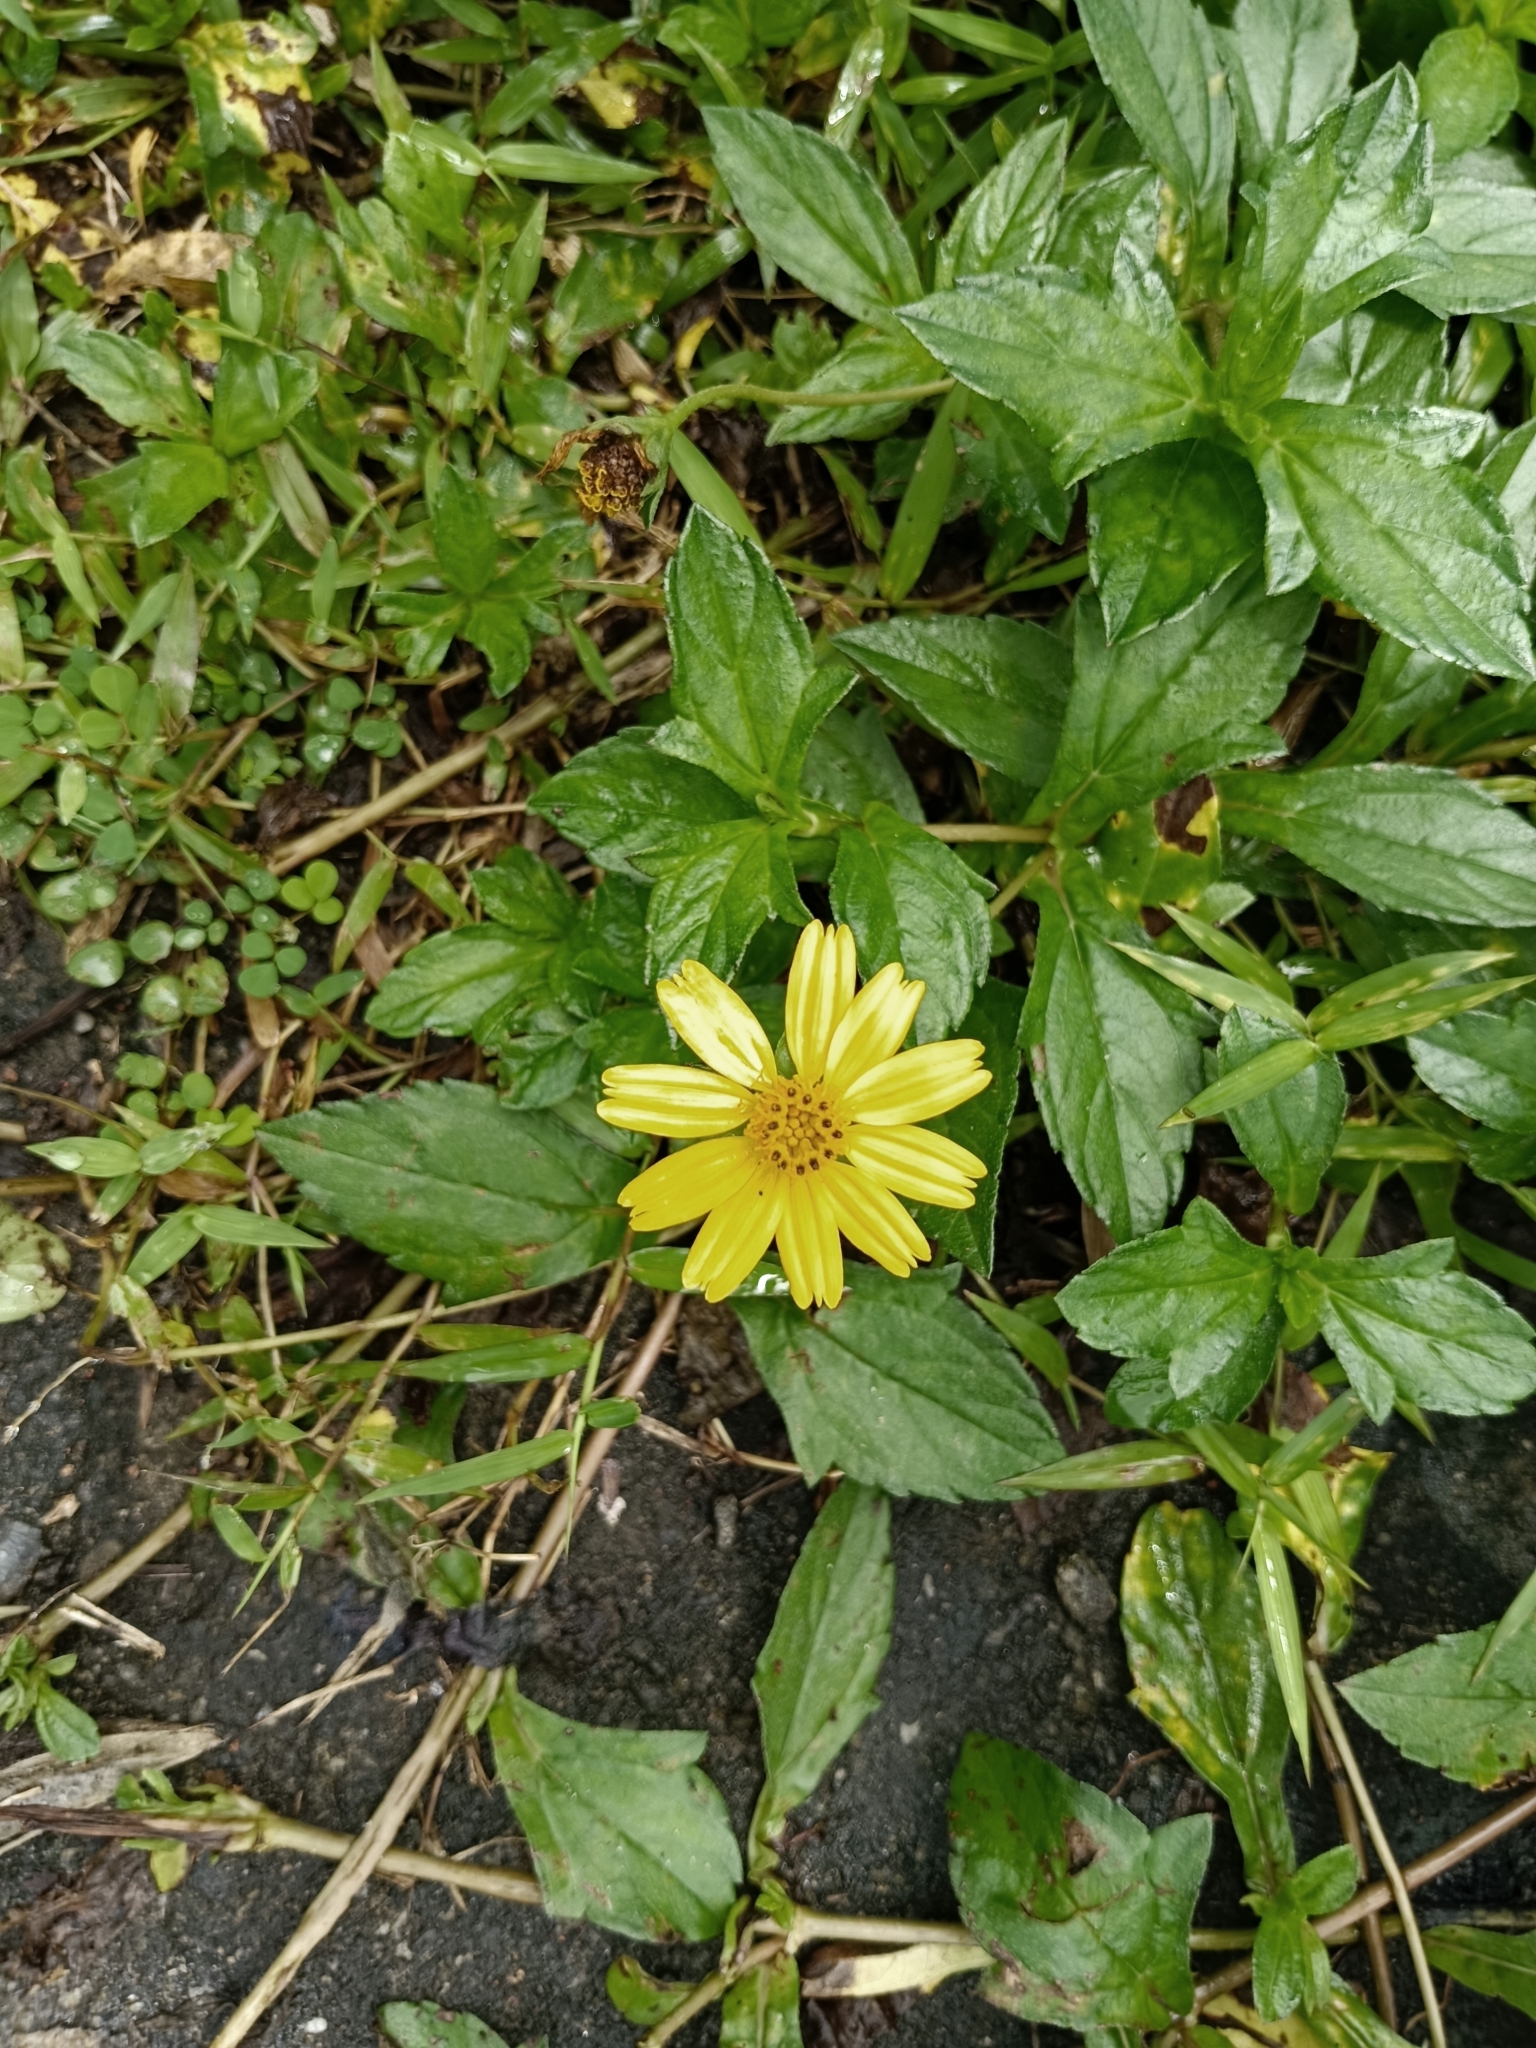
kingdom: Plantae
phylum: Tracheophyta
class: Magnoliopsida
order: Asterales
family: Asteraceae
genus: Sphagneticola
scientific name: Sphagneticola trilobata
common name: Bay biscayne creeping-oxeye
